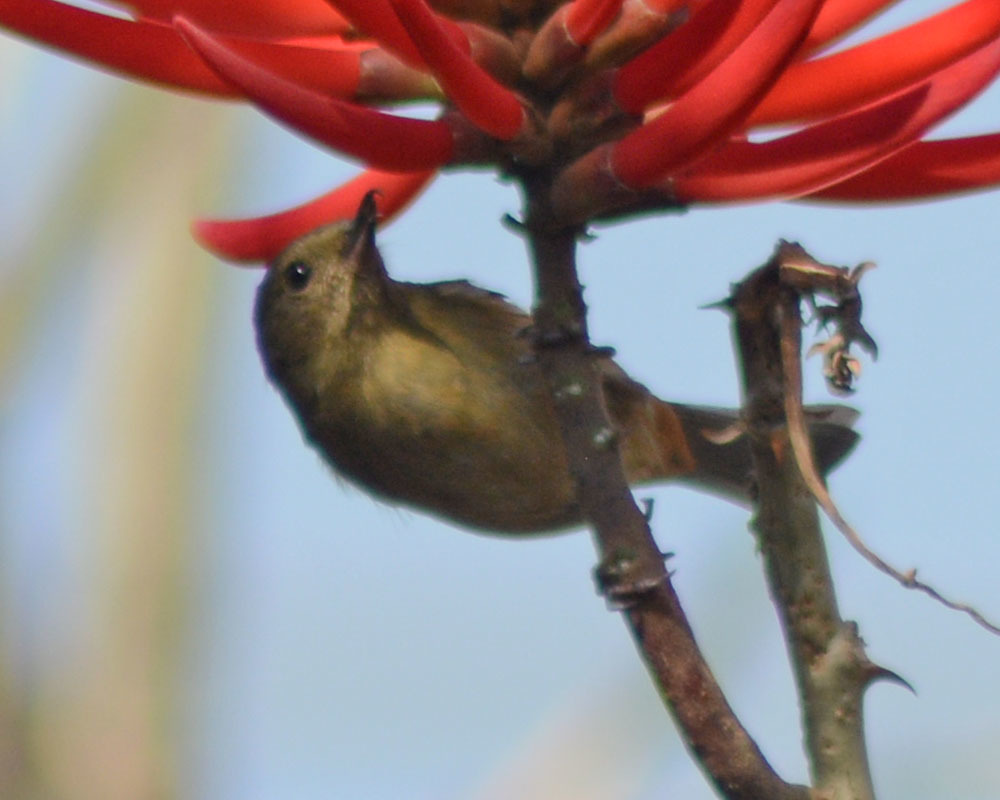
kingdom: Animalia
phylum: Chordata
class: Aves
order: Passeriformes
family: Thraupidae
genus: Diglossa
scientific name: Diglossa baritula
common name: Cinnamon-bellied flowerpiercer
